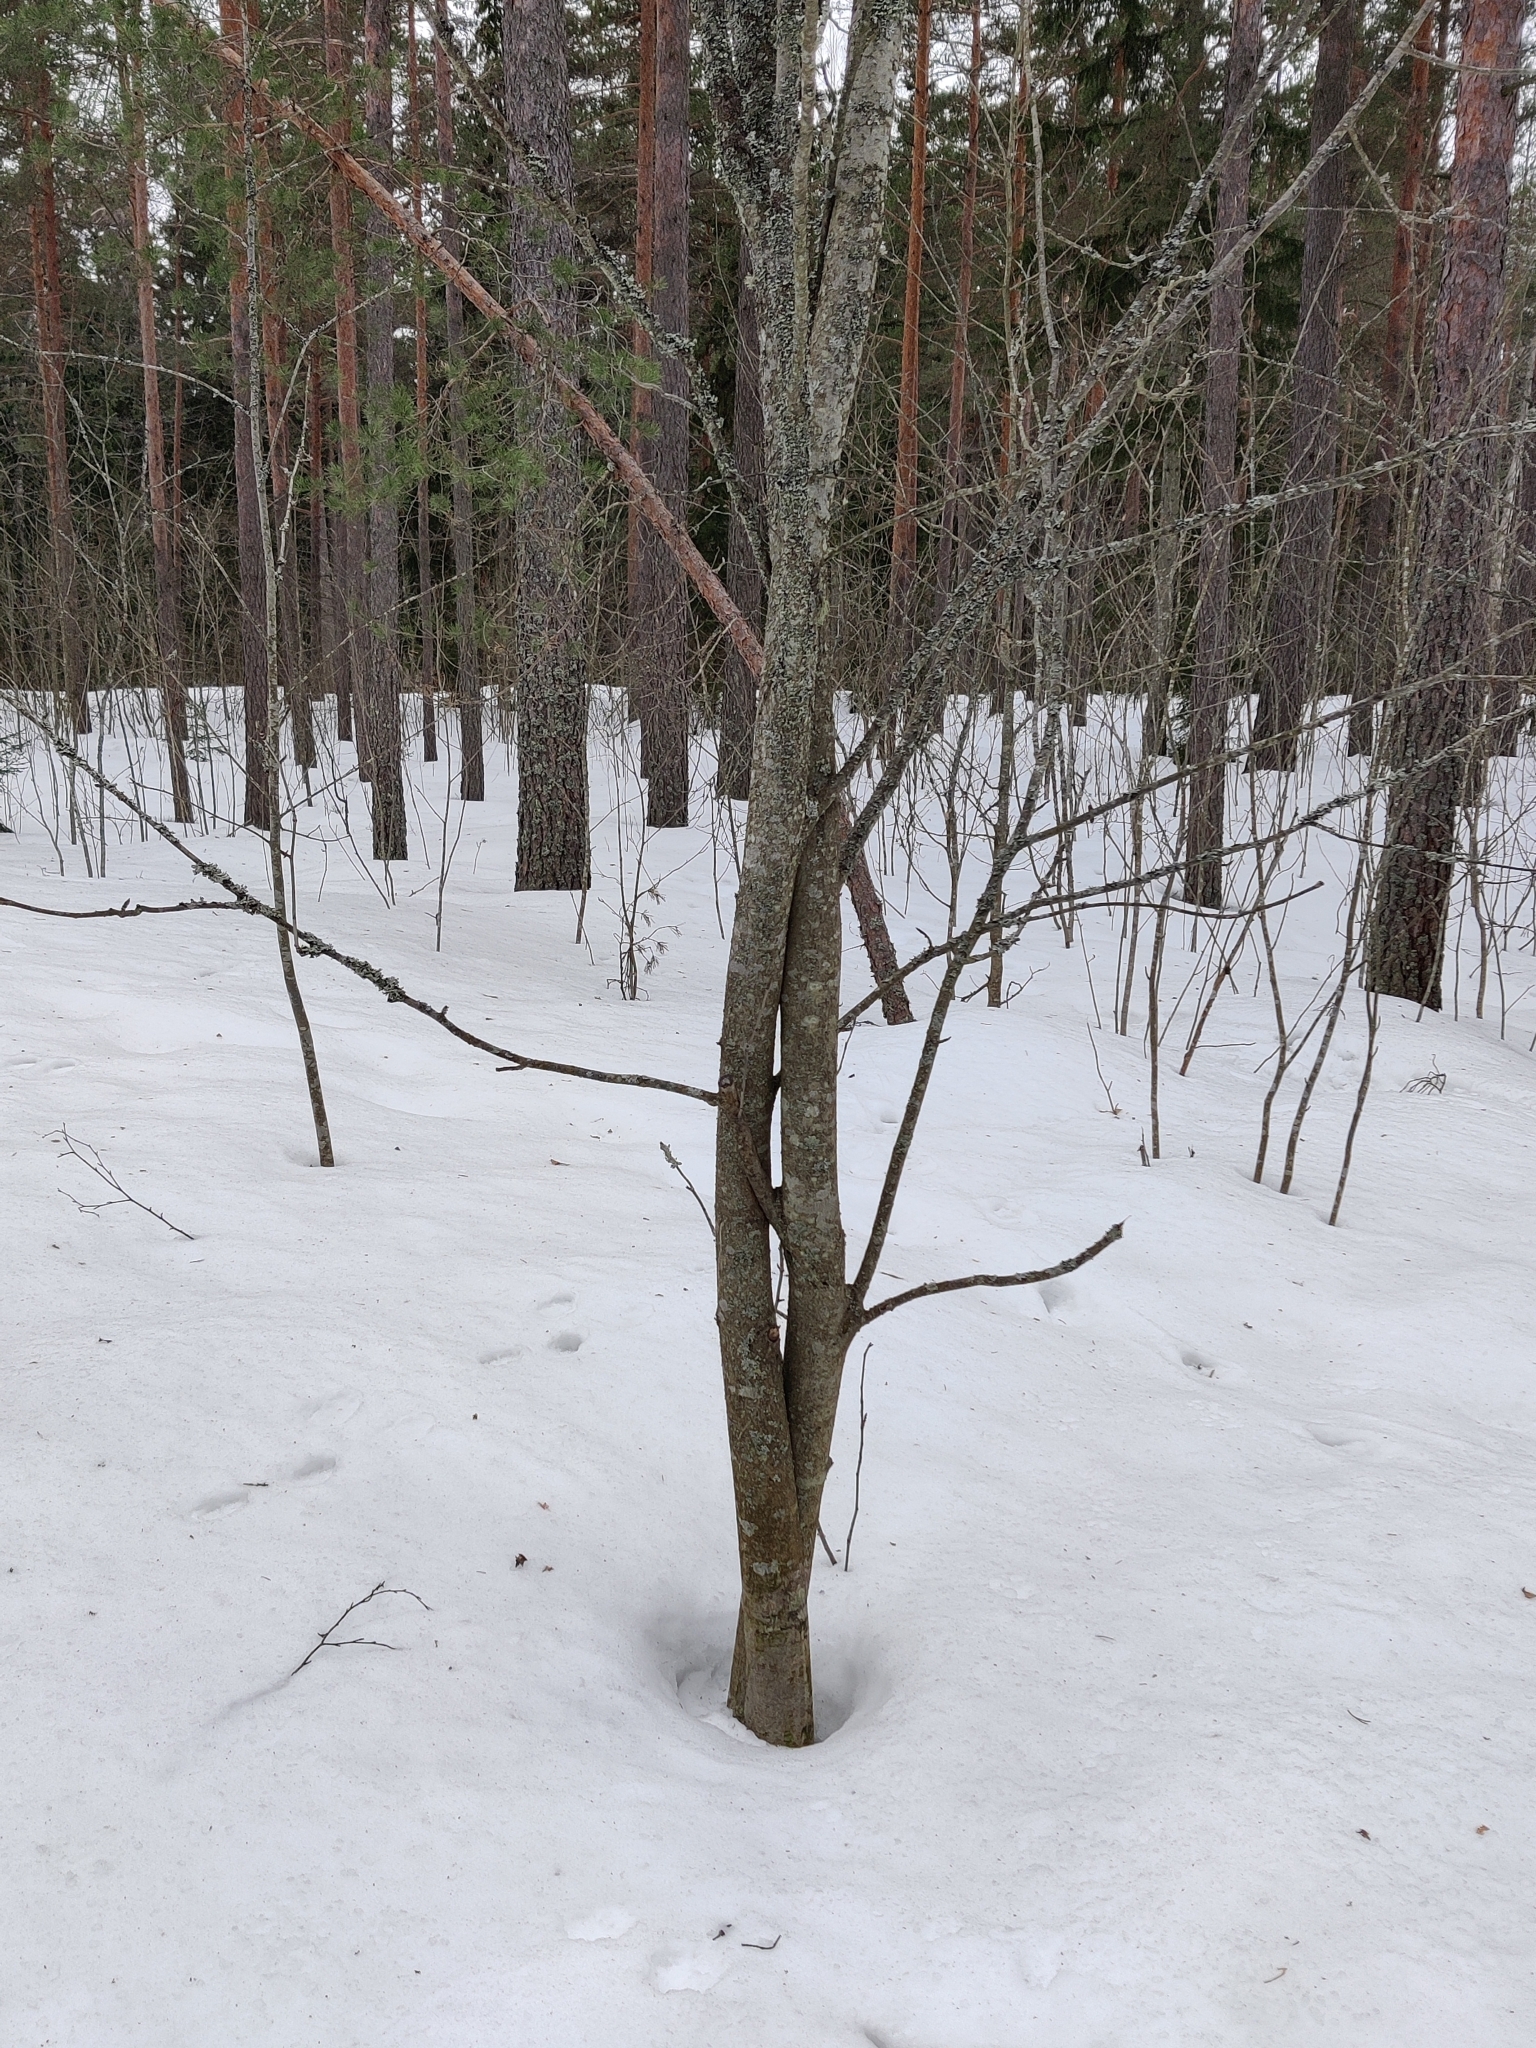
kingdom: Plantae
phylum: Tracheophyta
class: Magnoliopsida
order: Rosales
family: Rosaceae
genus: Sorbus
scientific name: Sorbus aucuparia
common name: Rowan
